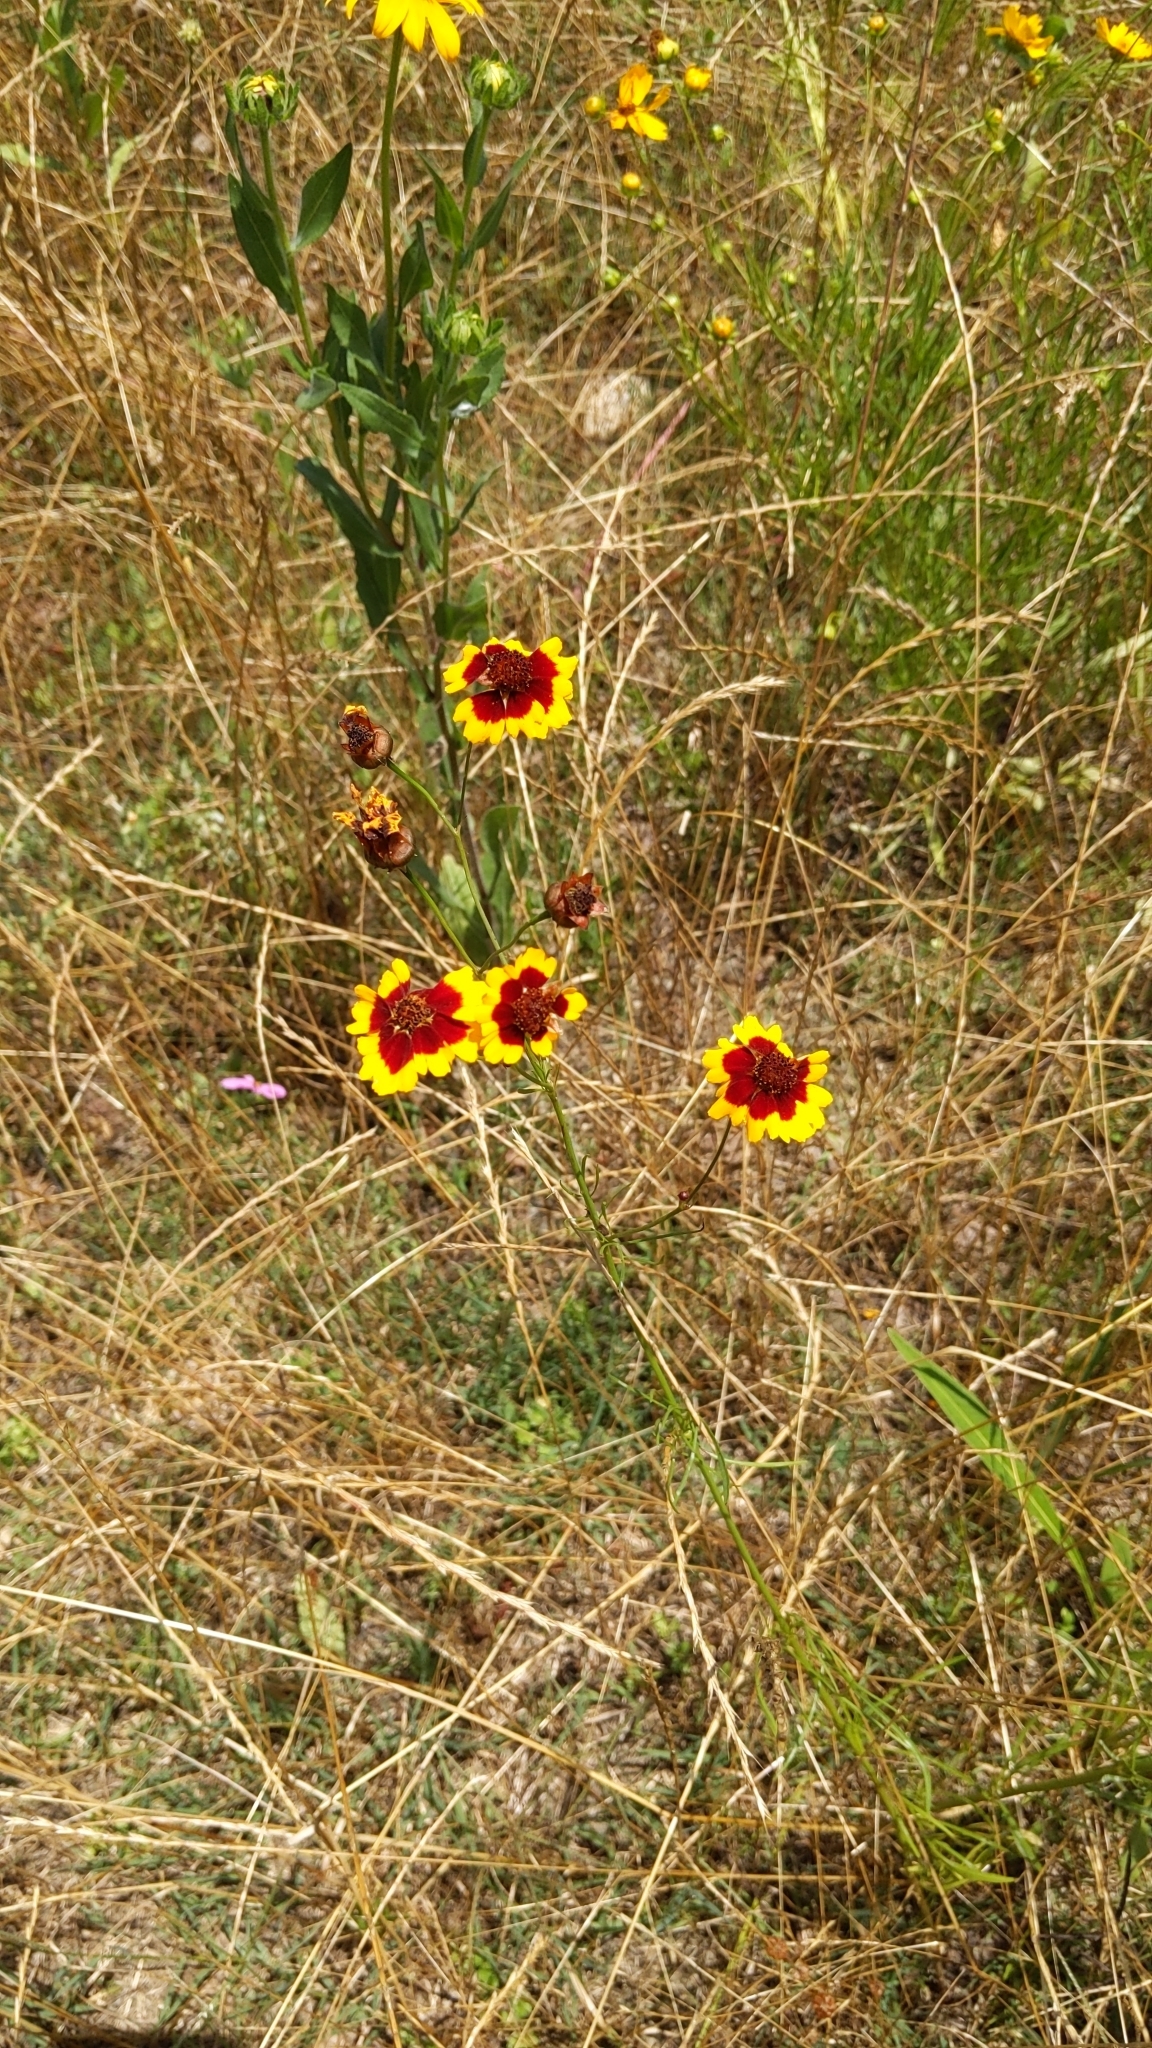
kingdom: Plantae
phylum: Tracheophyta
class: Magnoliopsida
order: Asterales
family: Asteraceae
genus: Coreopsis
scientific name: Coreopsis tinctoria
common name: Garden tickseed
